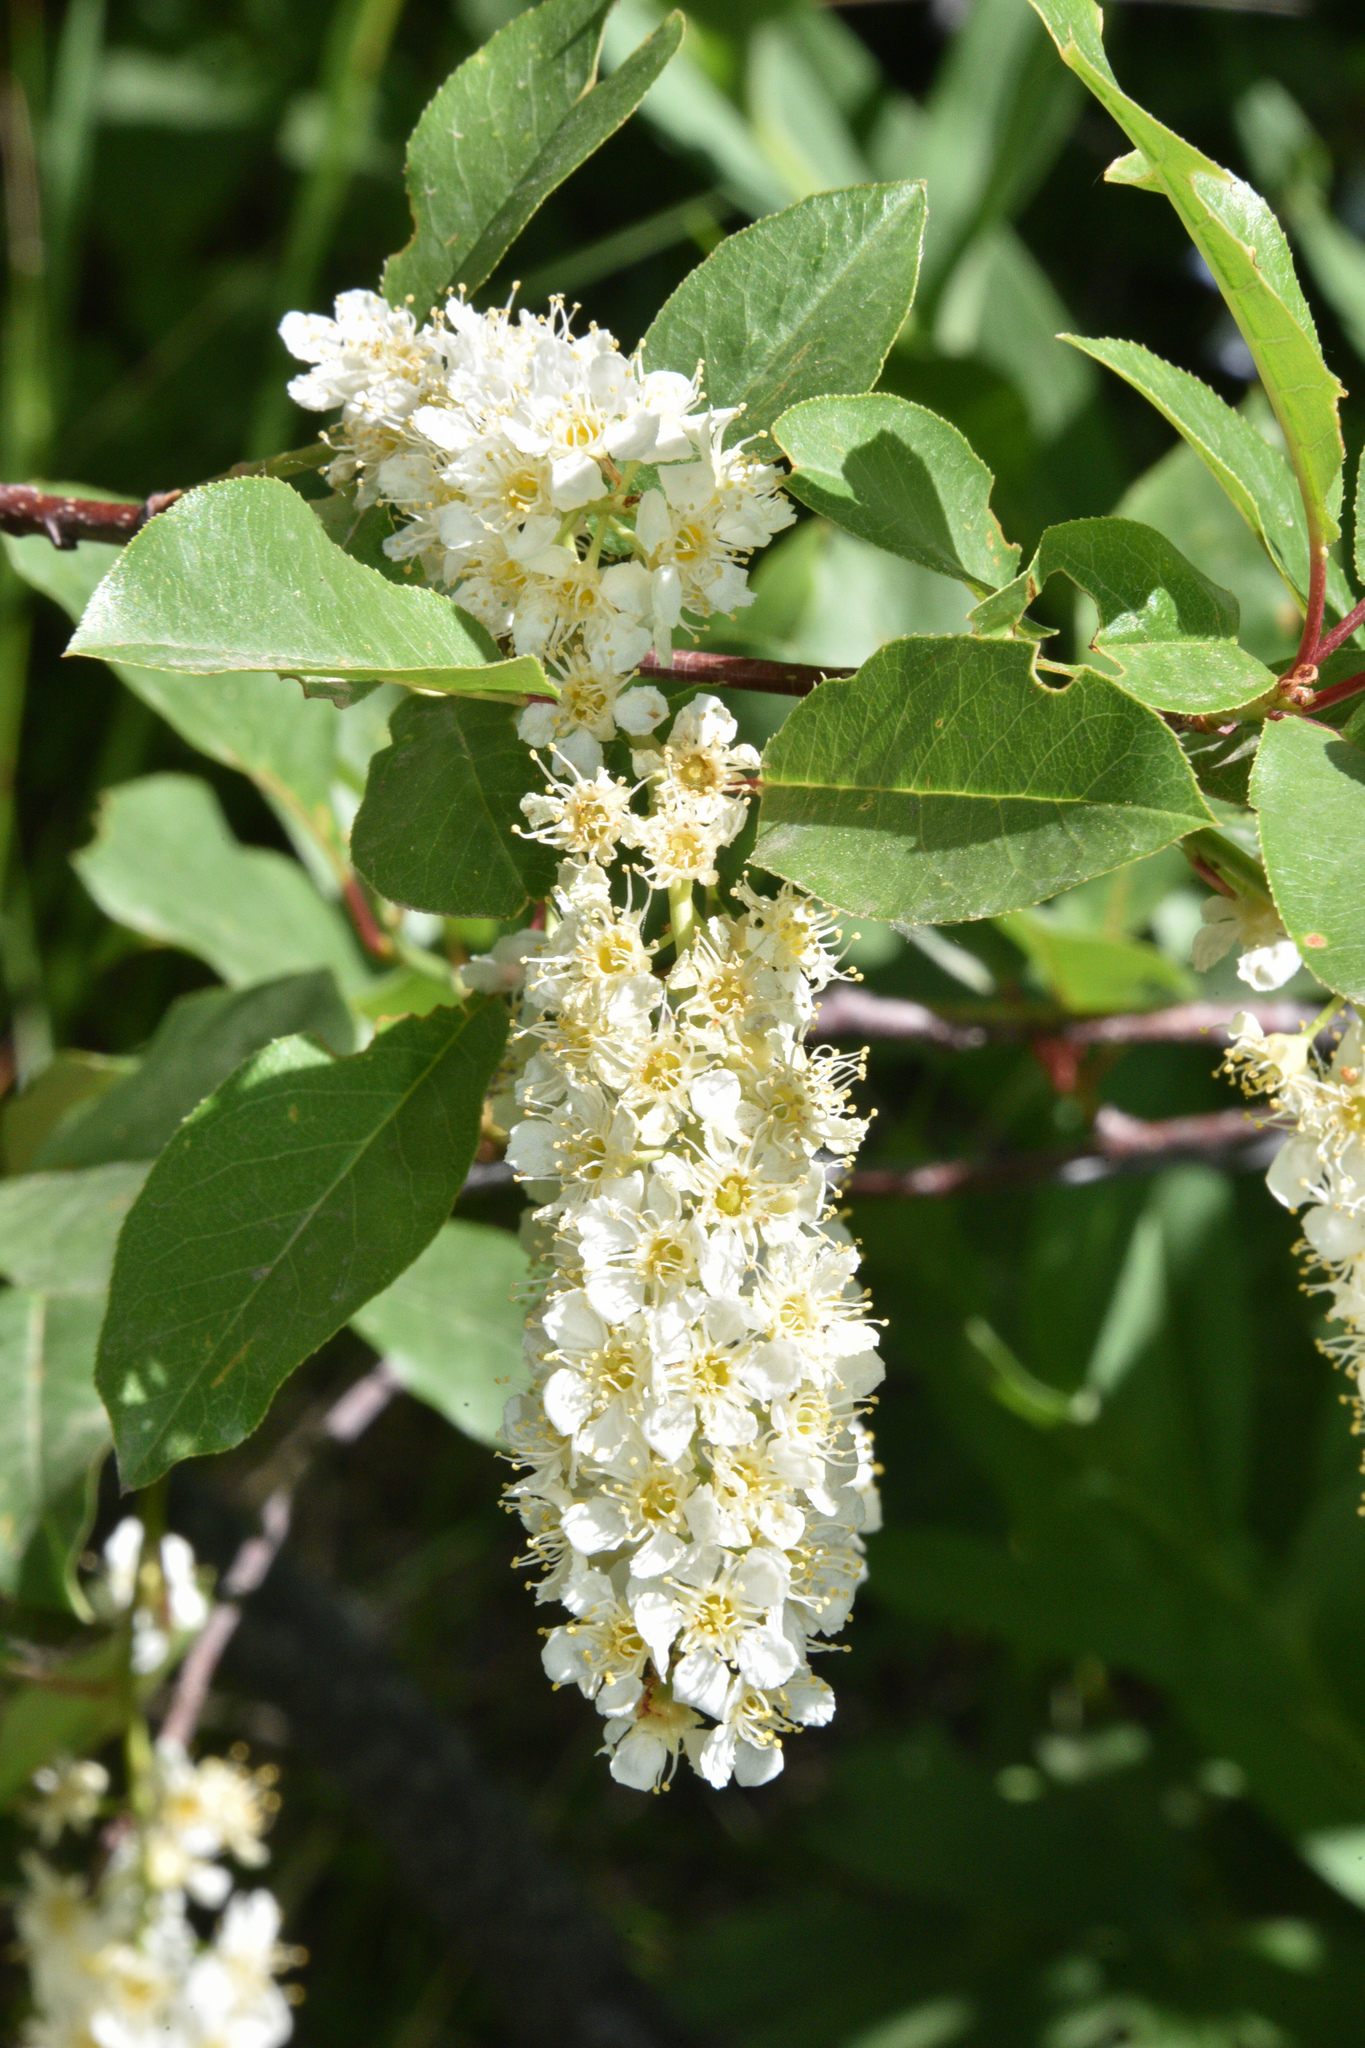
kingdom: Plantae
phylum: Tracheophyta
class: Magnoliopsida
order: Rosales
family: Rosaceae
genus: Prunus
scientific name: Prunus virginiana
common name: Chokecherry
